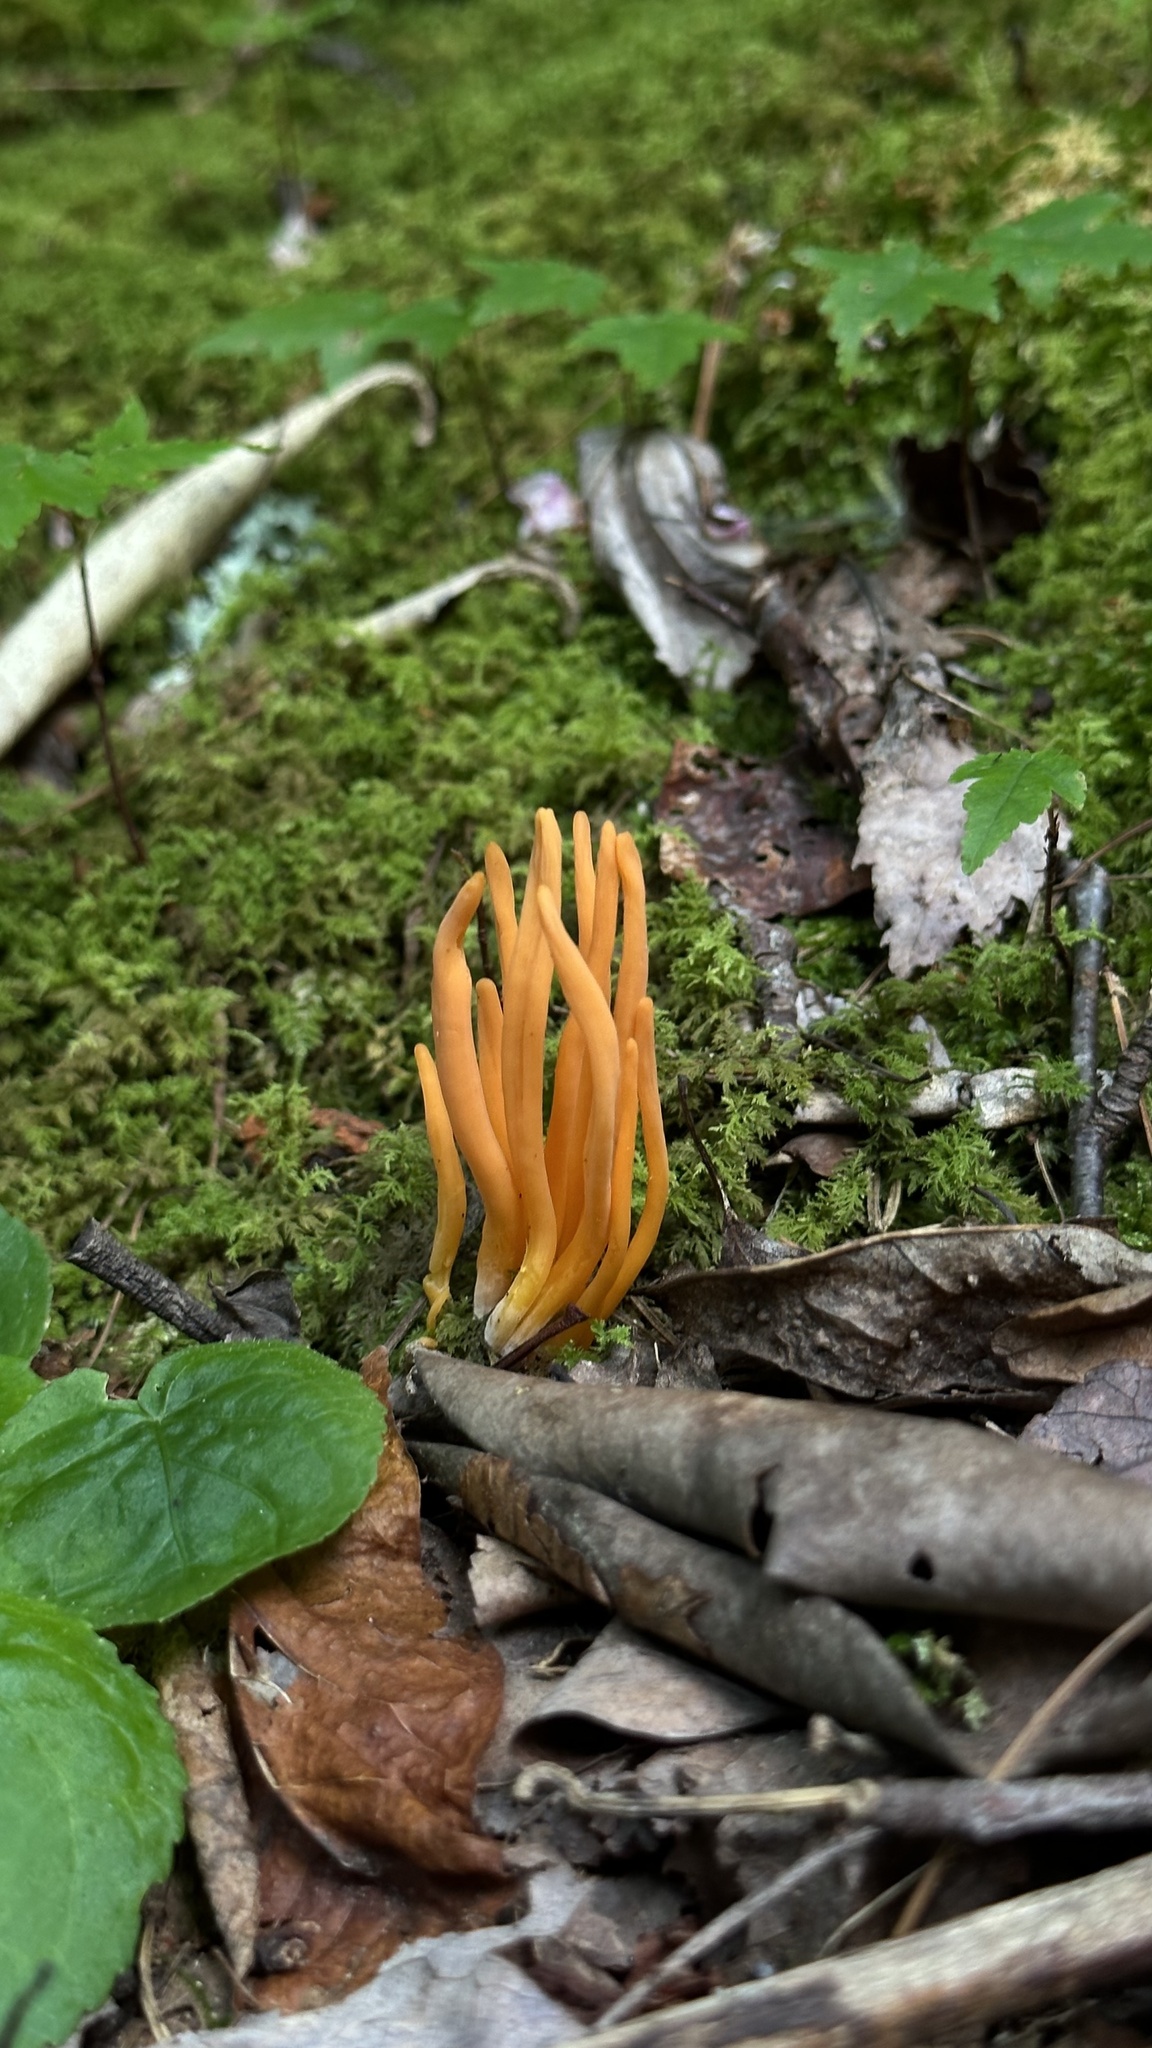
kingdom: Fungi
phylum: Basidiomycota
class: Agaricomycetes
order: Agaricales
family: Clavariaceae
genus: Clavulinopsis
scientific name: Clavulinopsis aurantiocinnabarina
